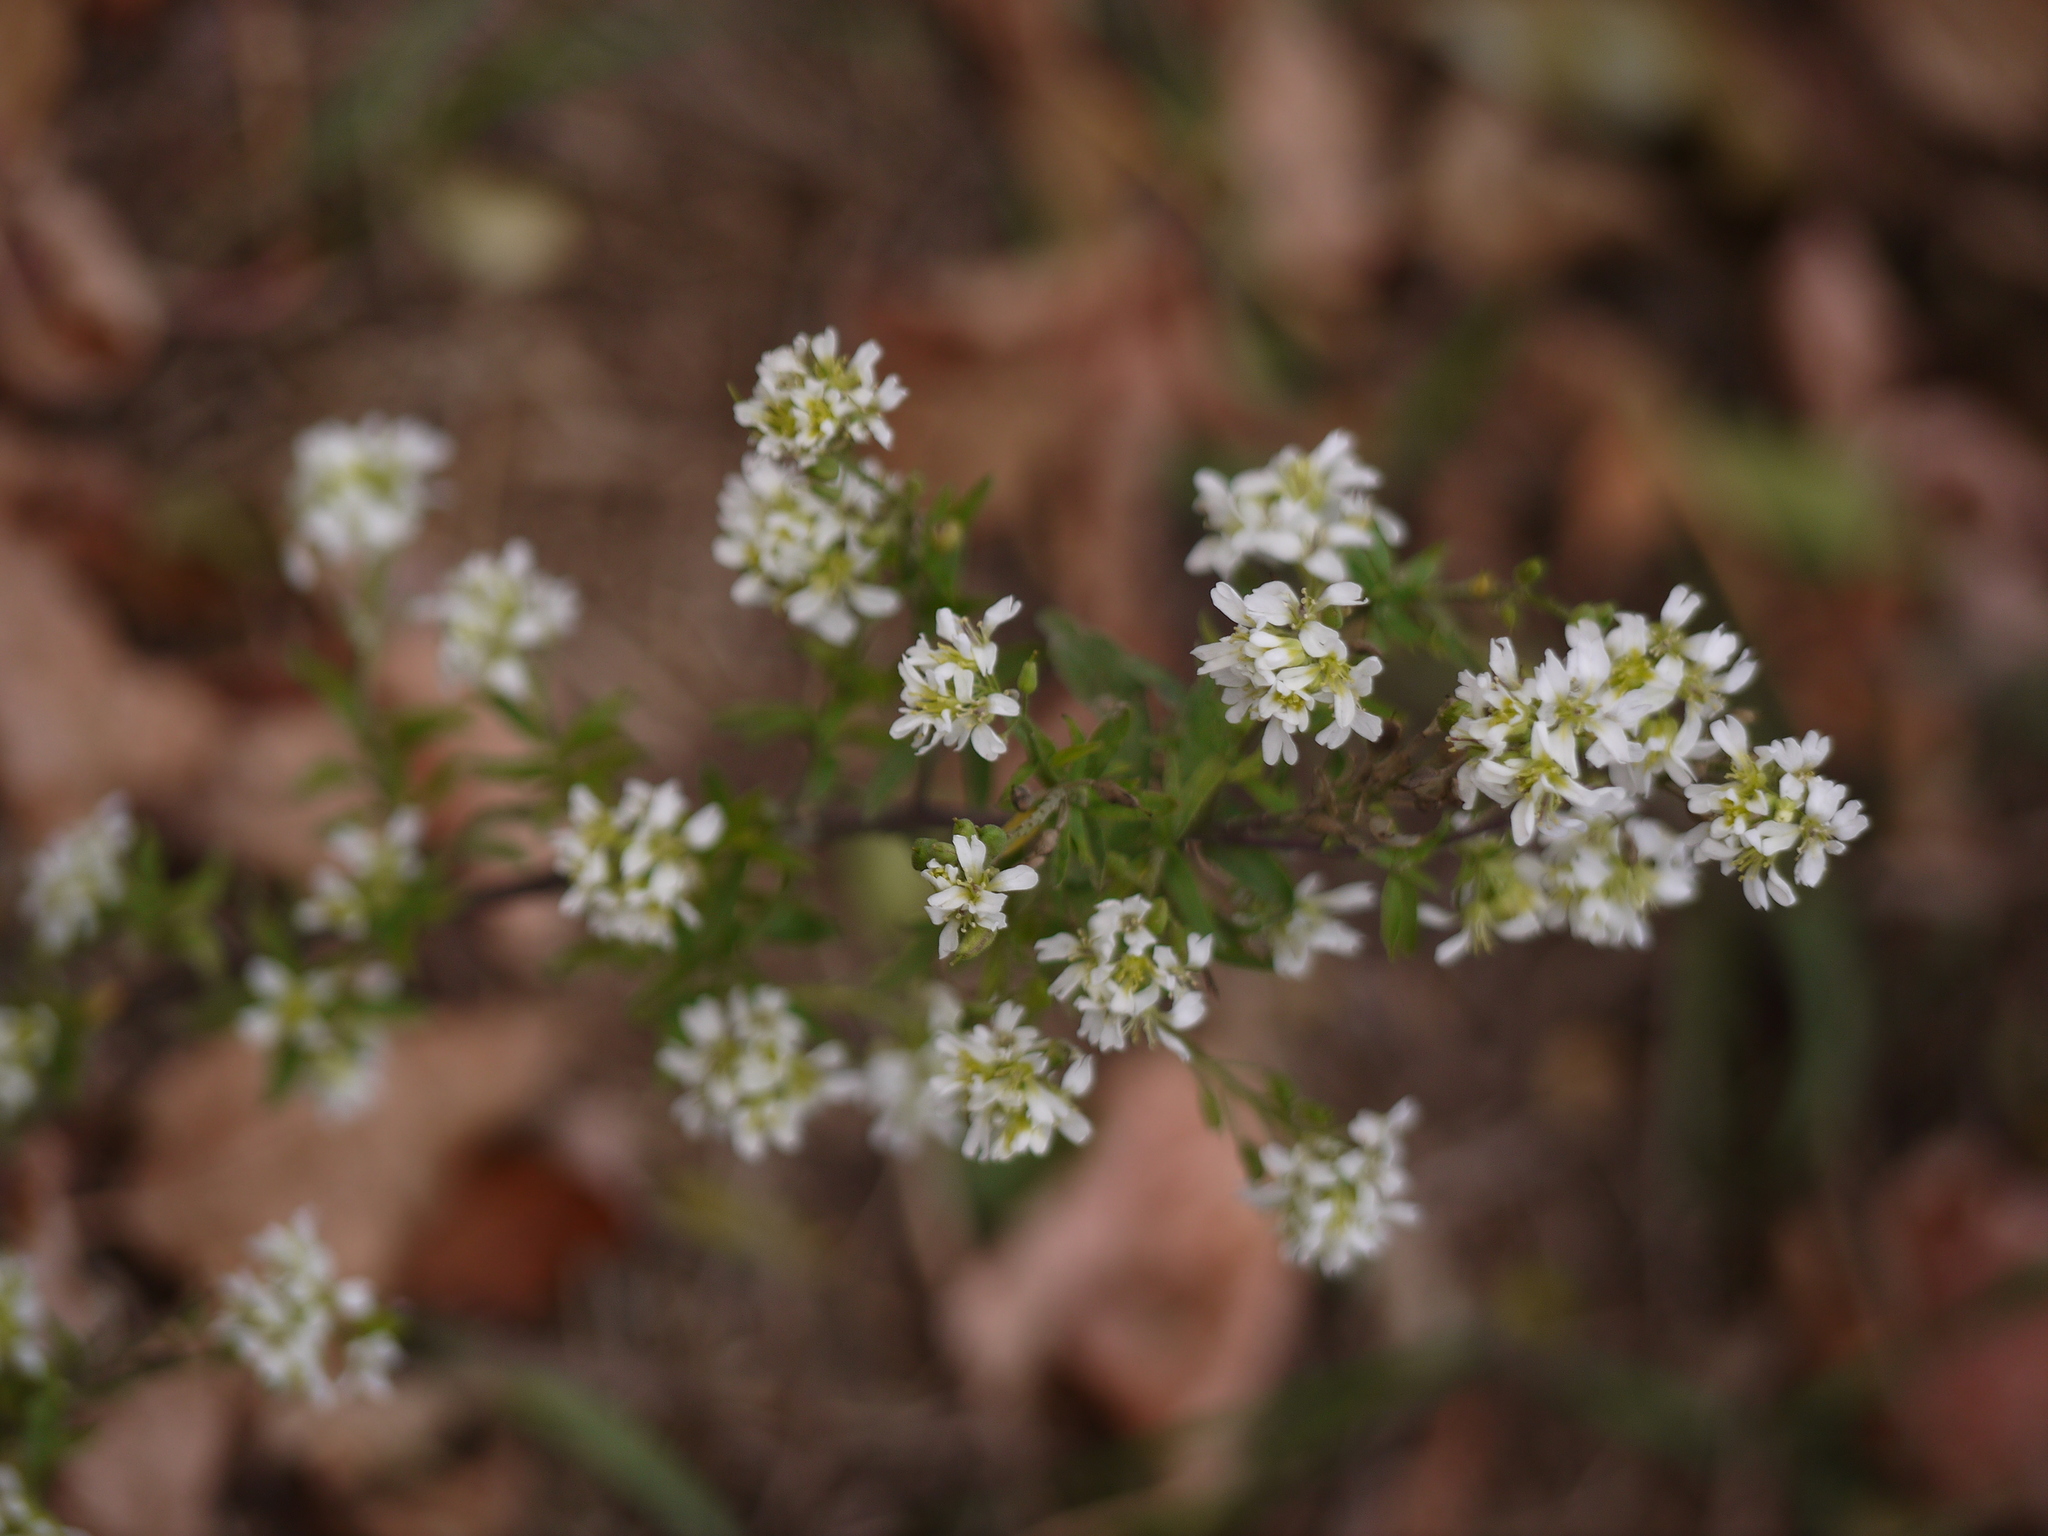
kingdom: Plantae
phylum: Tracheophyta
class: Magnoliopsida
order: Brassicales
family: Brassicaceae
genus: Berteroa
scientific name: Berteroa incana
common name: Hoary alison
